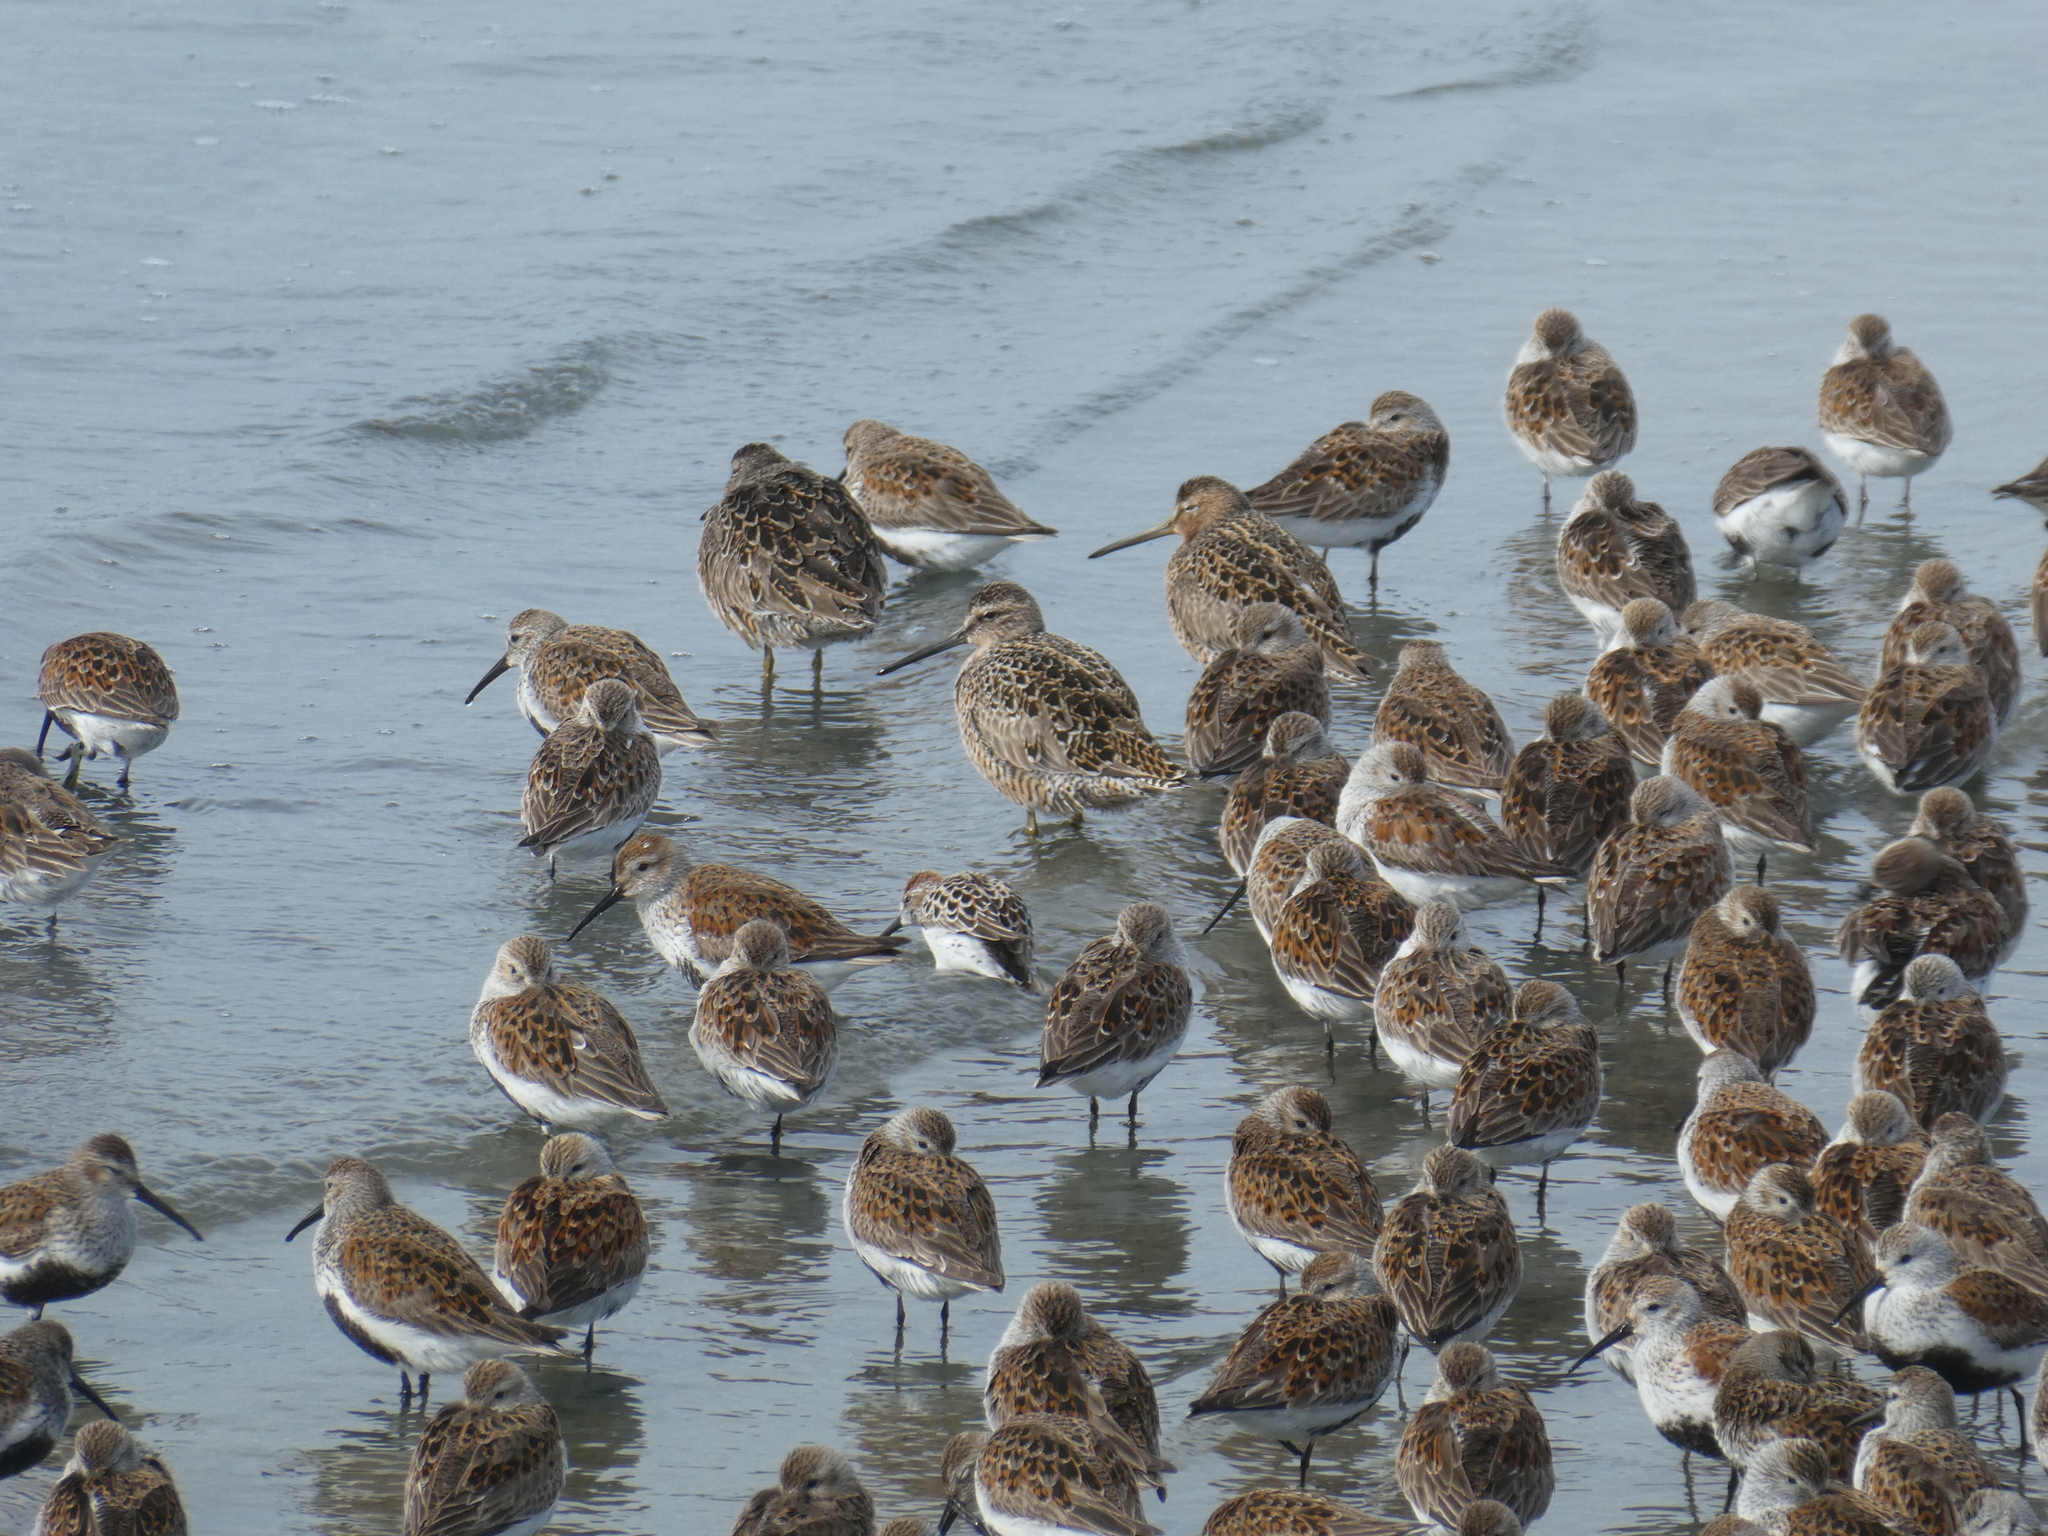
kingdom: Animalia
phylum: Chordata
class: Aves
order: Charadriiformes
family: Scolopacidae
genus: Limnodromus
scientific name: Limnodromus griseus
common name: Short-billed dowitcher
